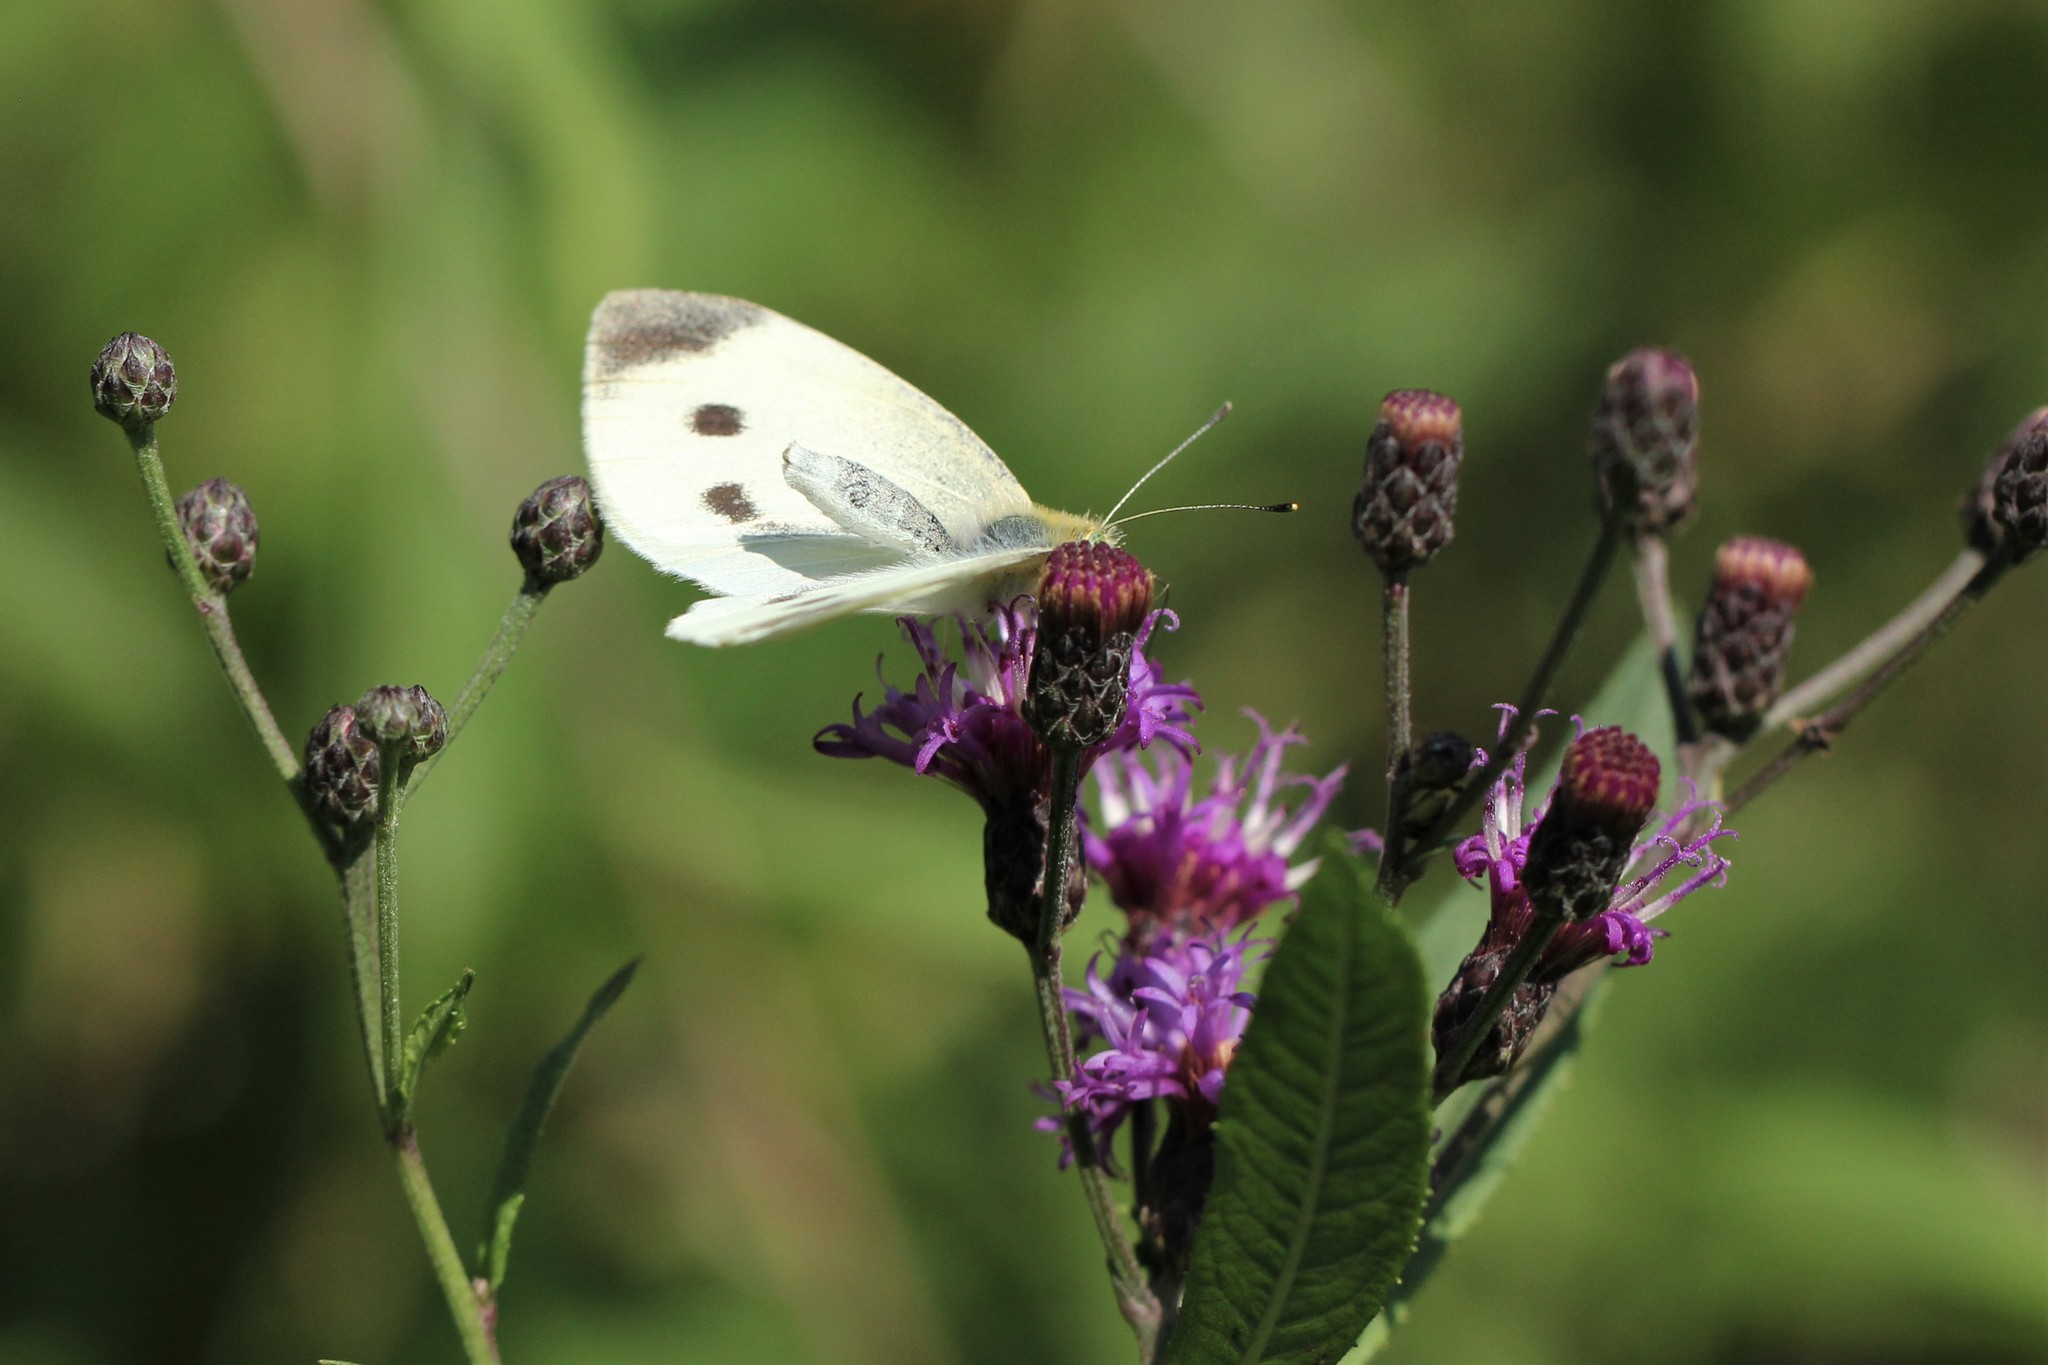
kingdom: Animalia
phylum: Arthropoda
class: Insecta
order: Lepidoptera
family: Pieridae
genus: Pieris
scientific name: Pieris rapae
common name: Small white
